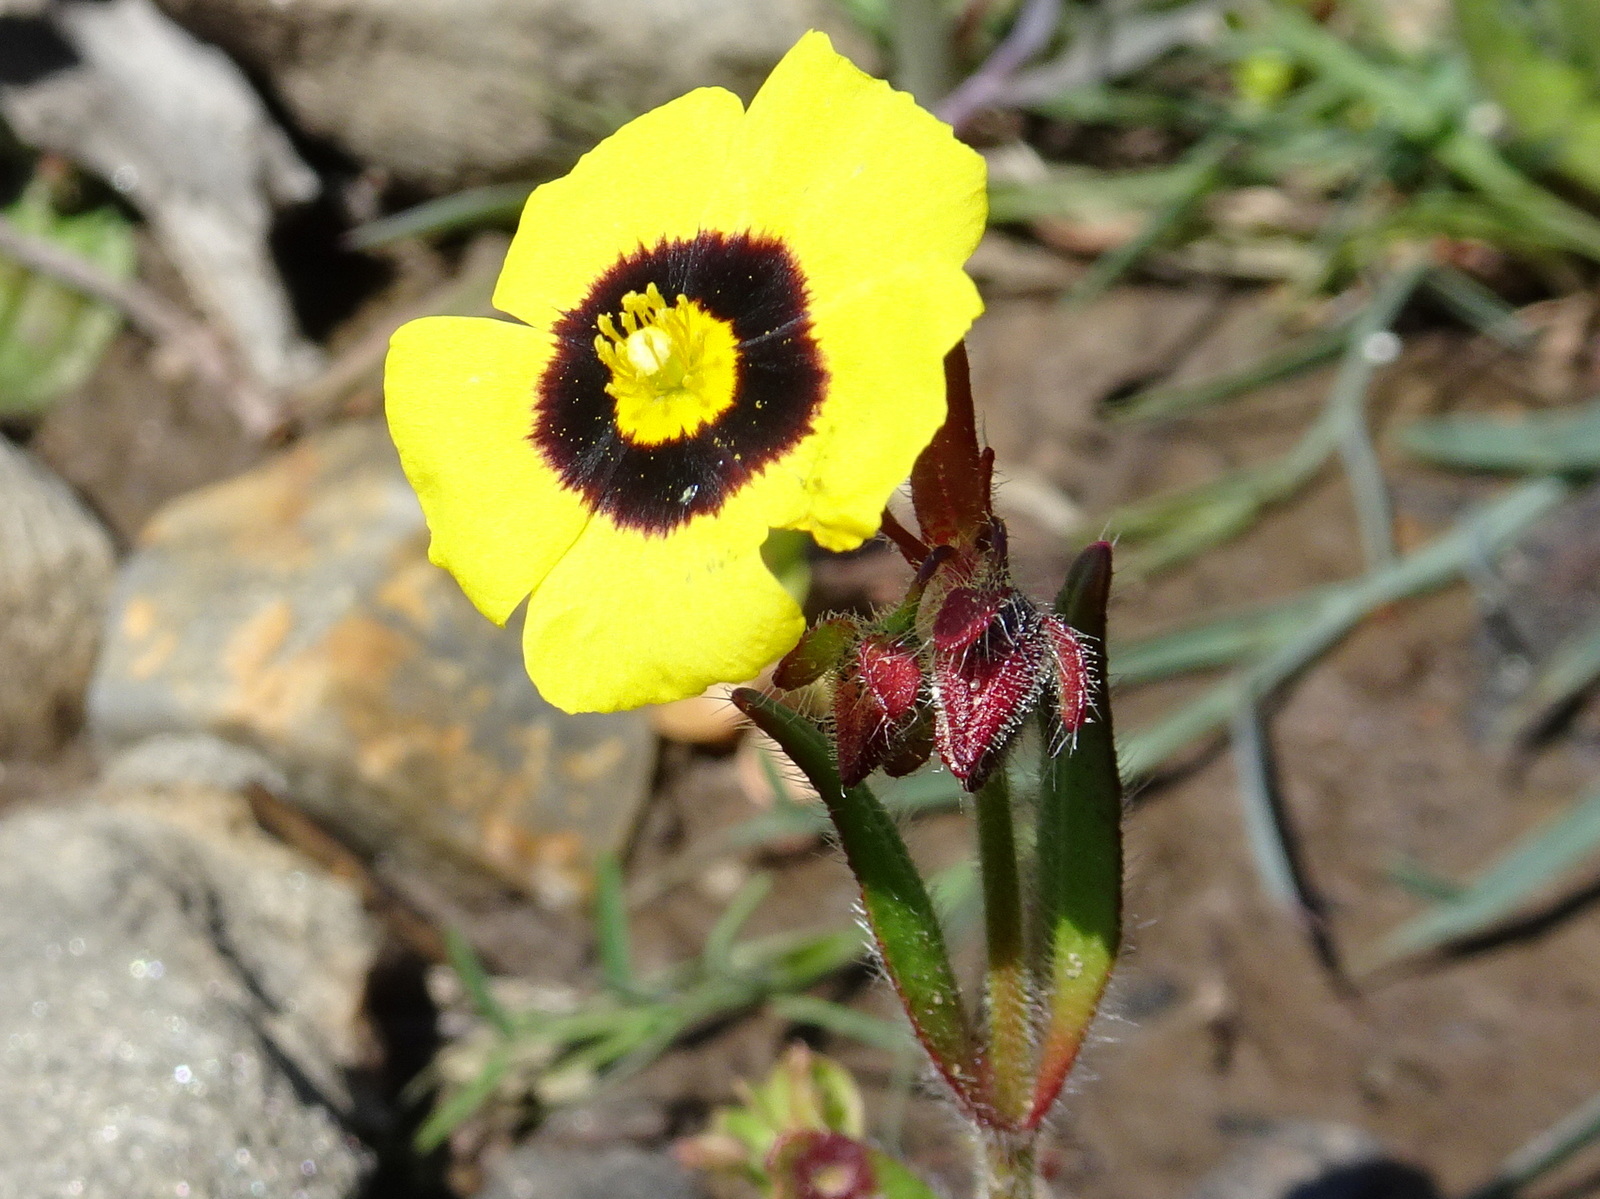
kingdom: Plantae
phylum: Tracheophyta
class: Magnoliopsida
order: Malvales
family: Cistaceae
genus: Tuberaria
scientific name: Tuberaria guttata
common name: Spotted rock-rose
